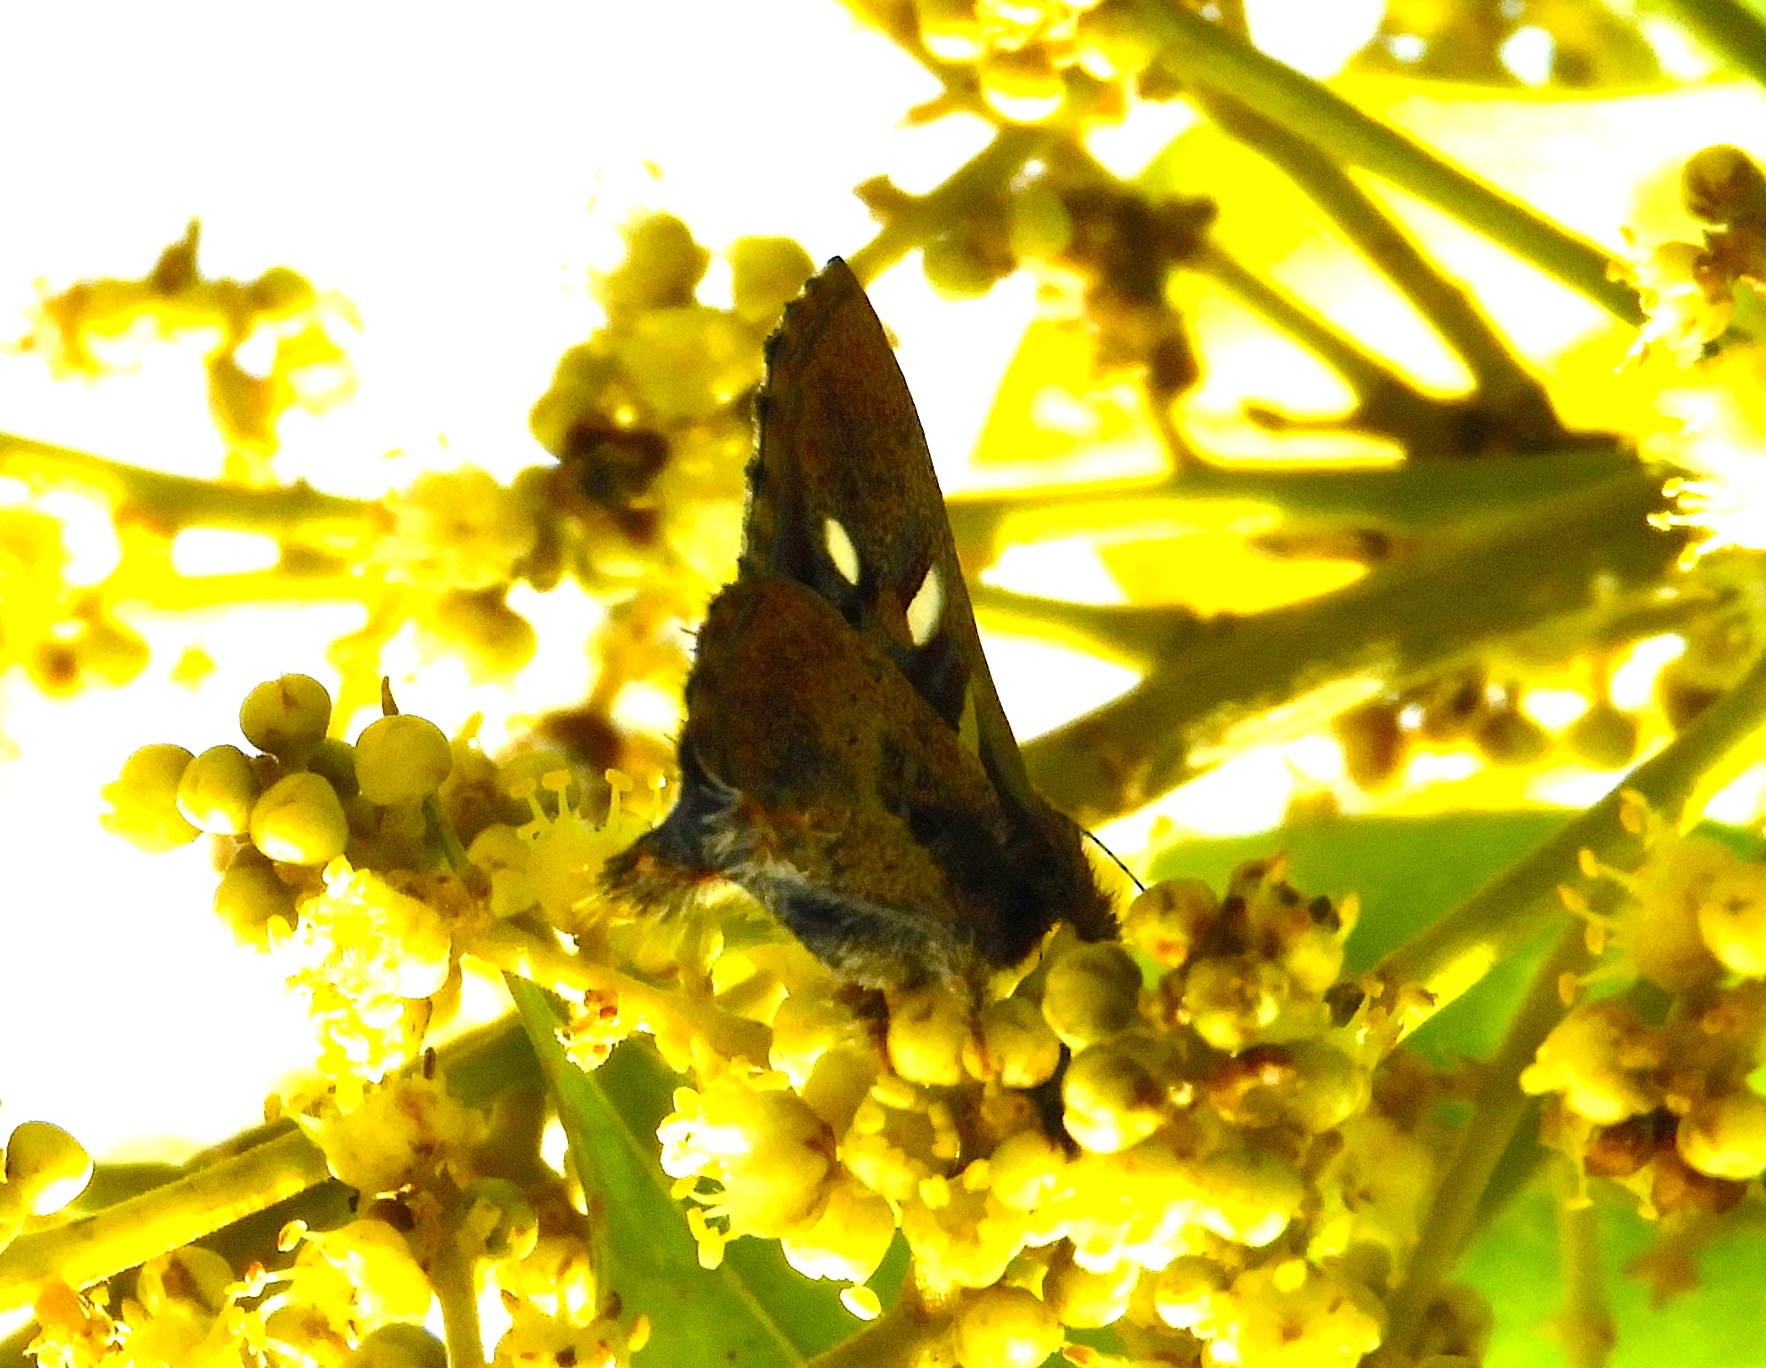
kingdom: Animalia
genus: Anteros
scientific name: Anteros carausius
